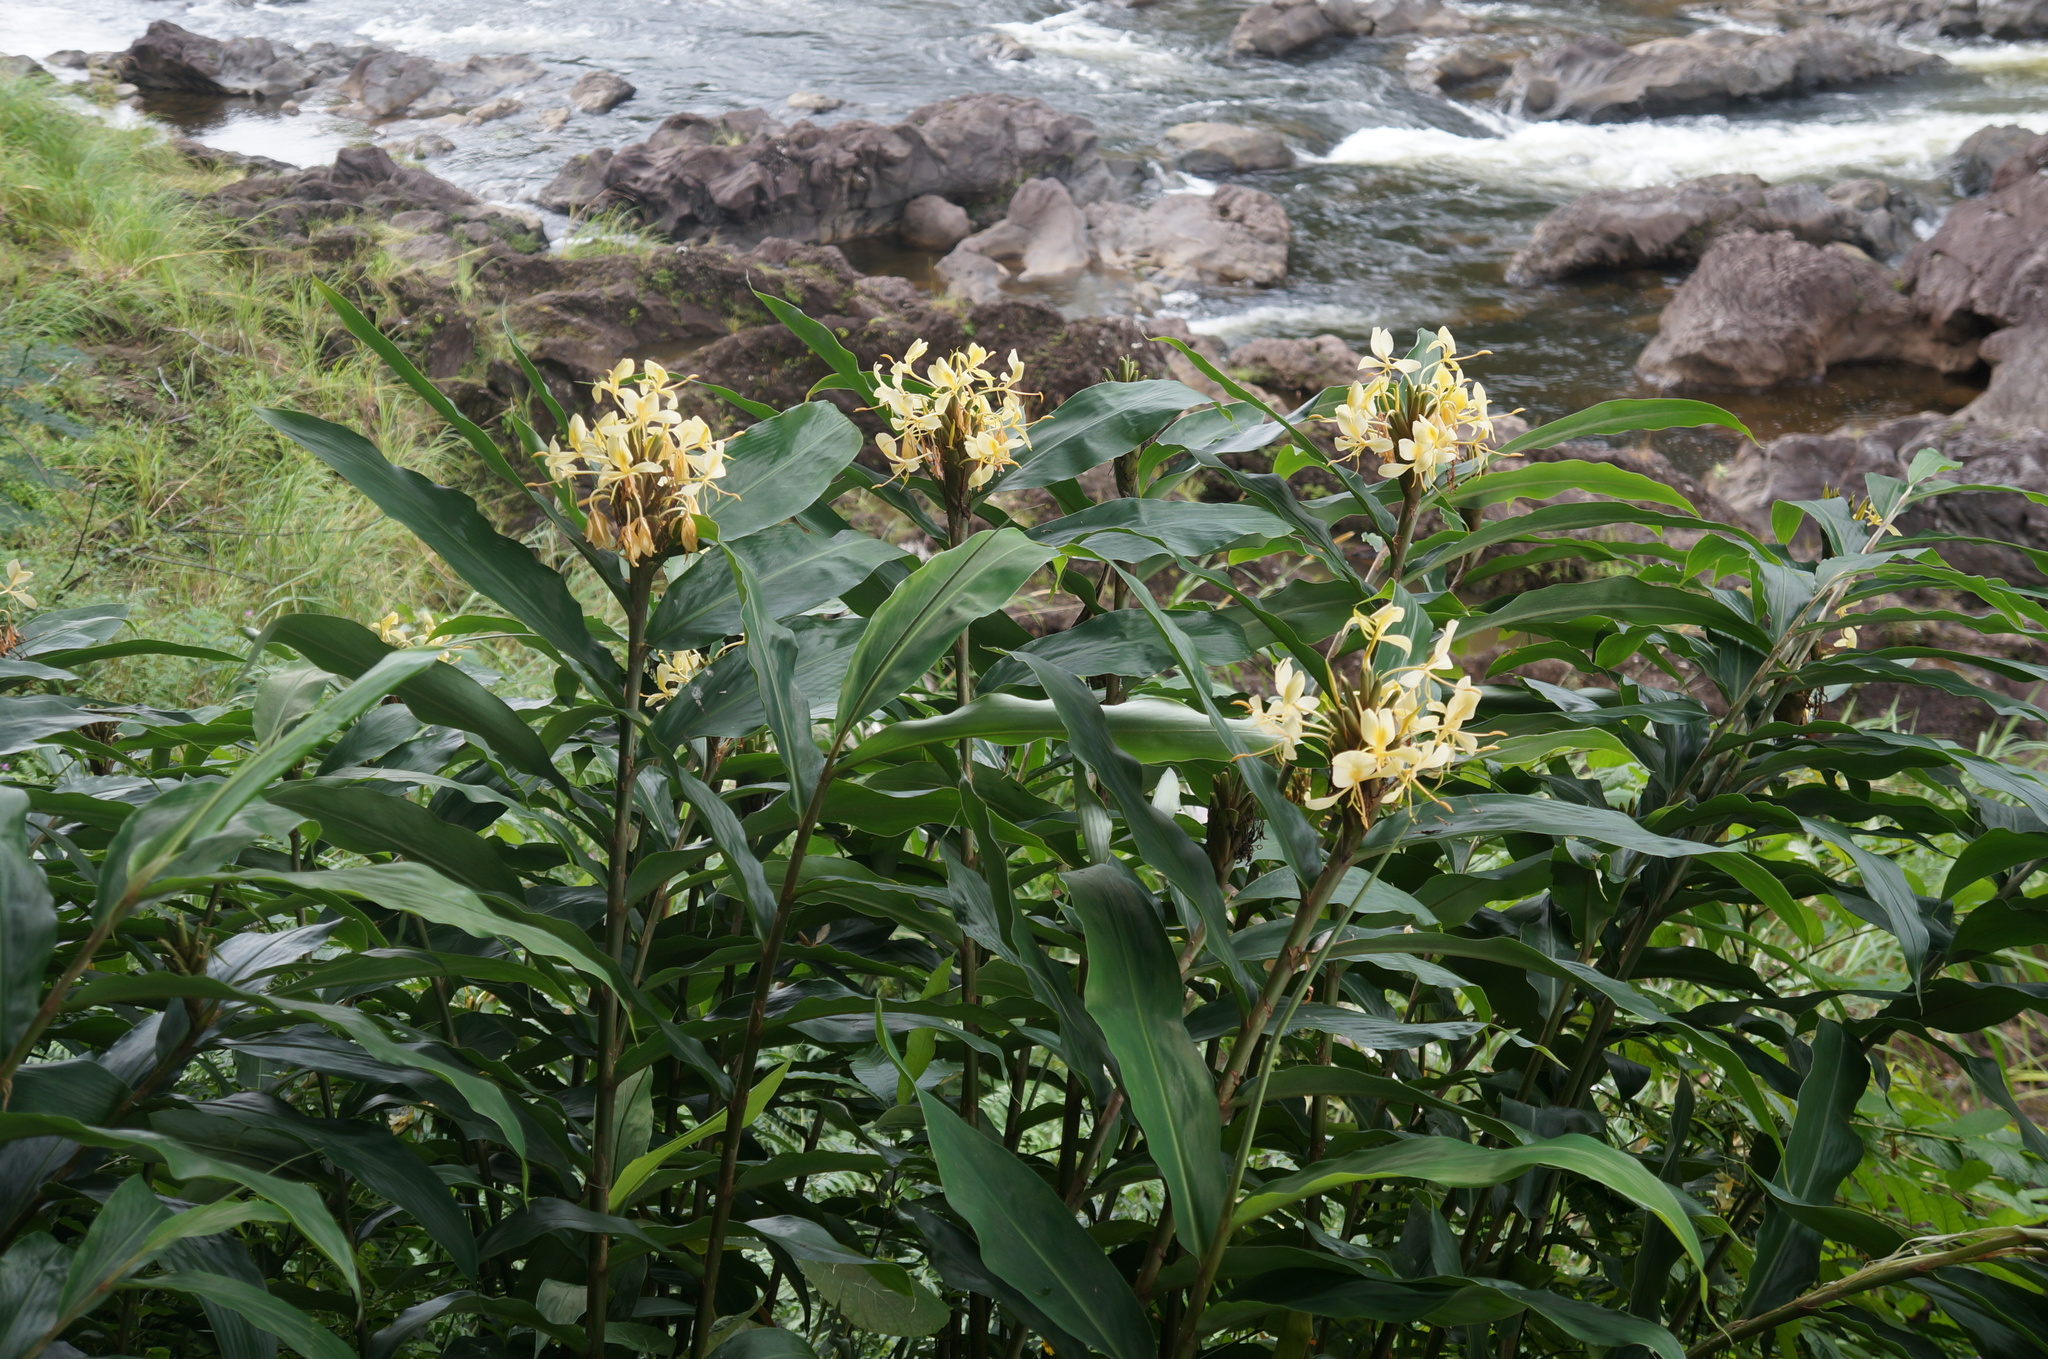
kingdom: Plantae
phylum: Tracheophyta
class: Liliopsida
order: Zingiberales
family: Zingiberaceae
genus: Hedychium
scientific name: Hedychium flavescens
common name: Yellow ginger
